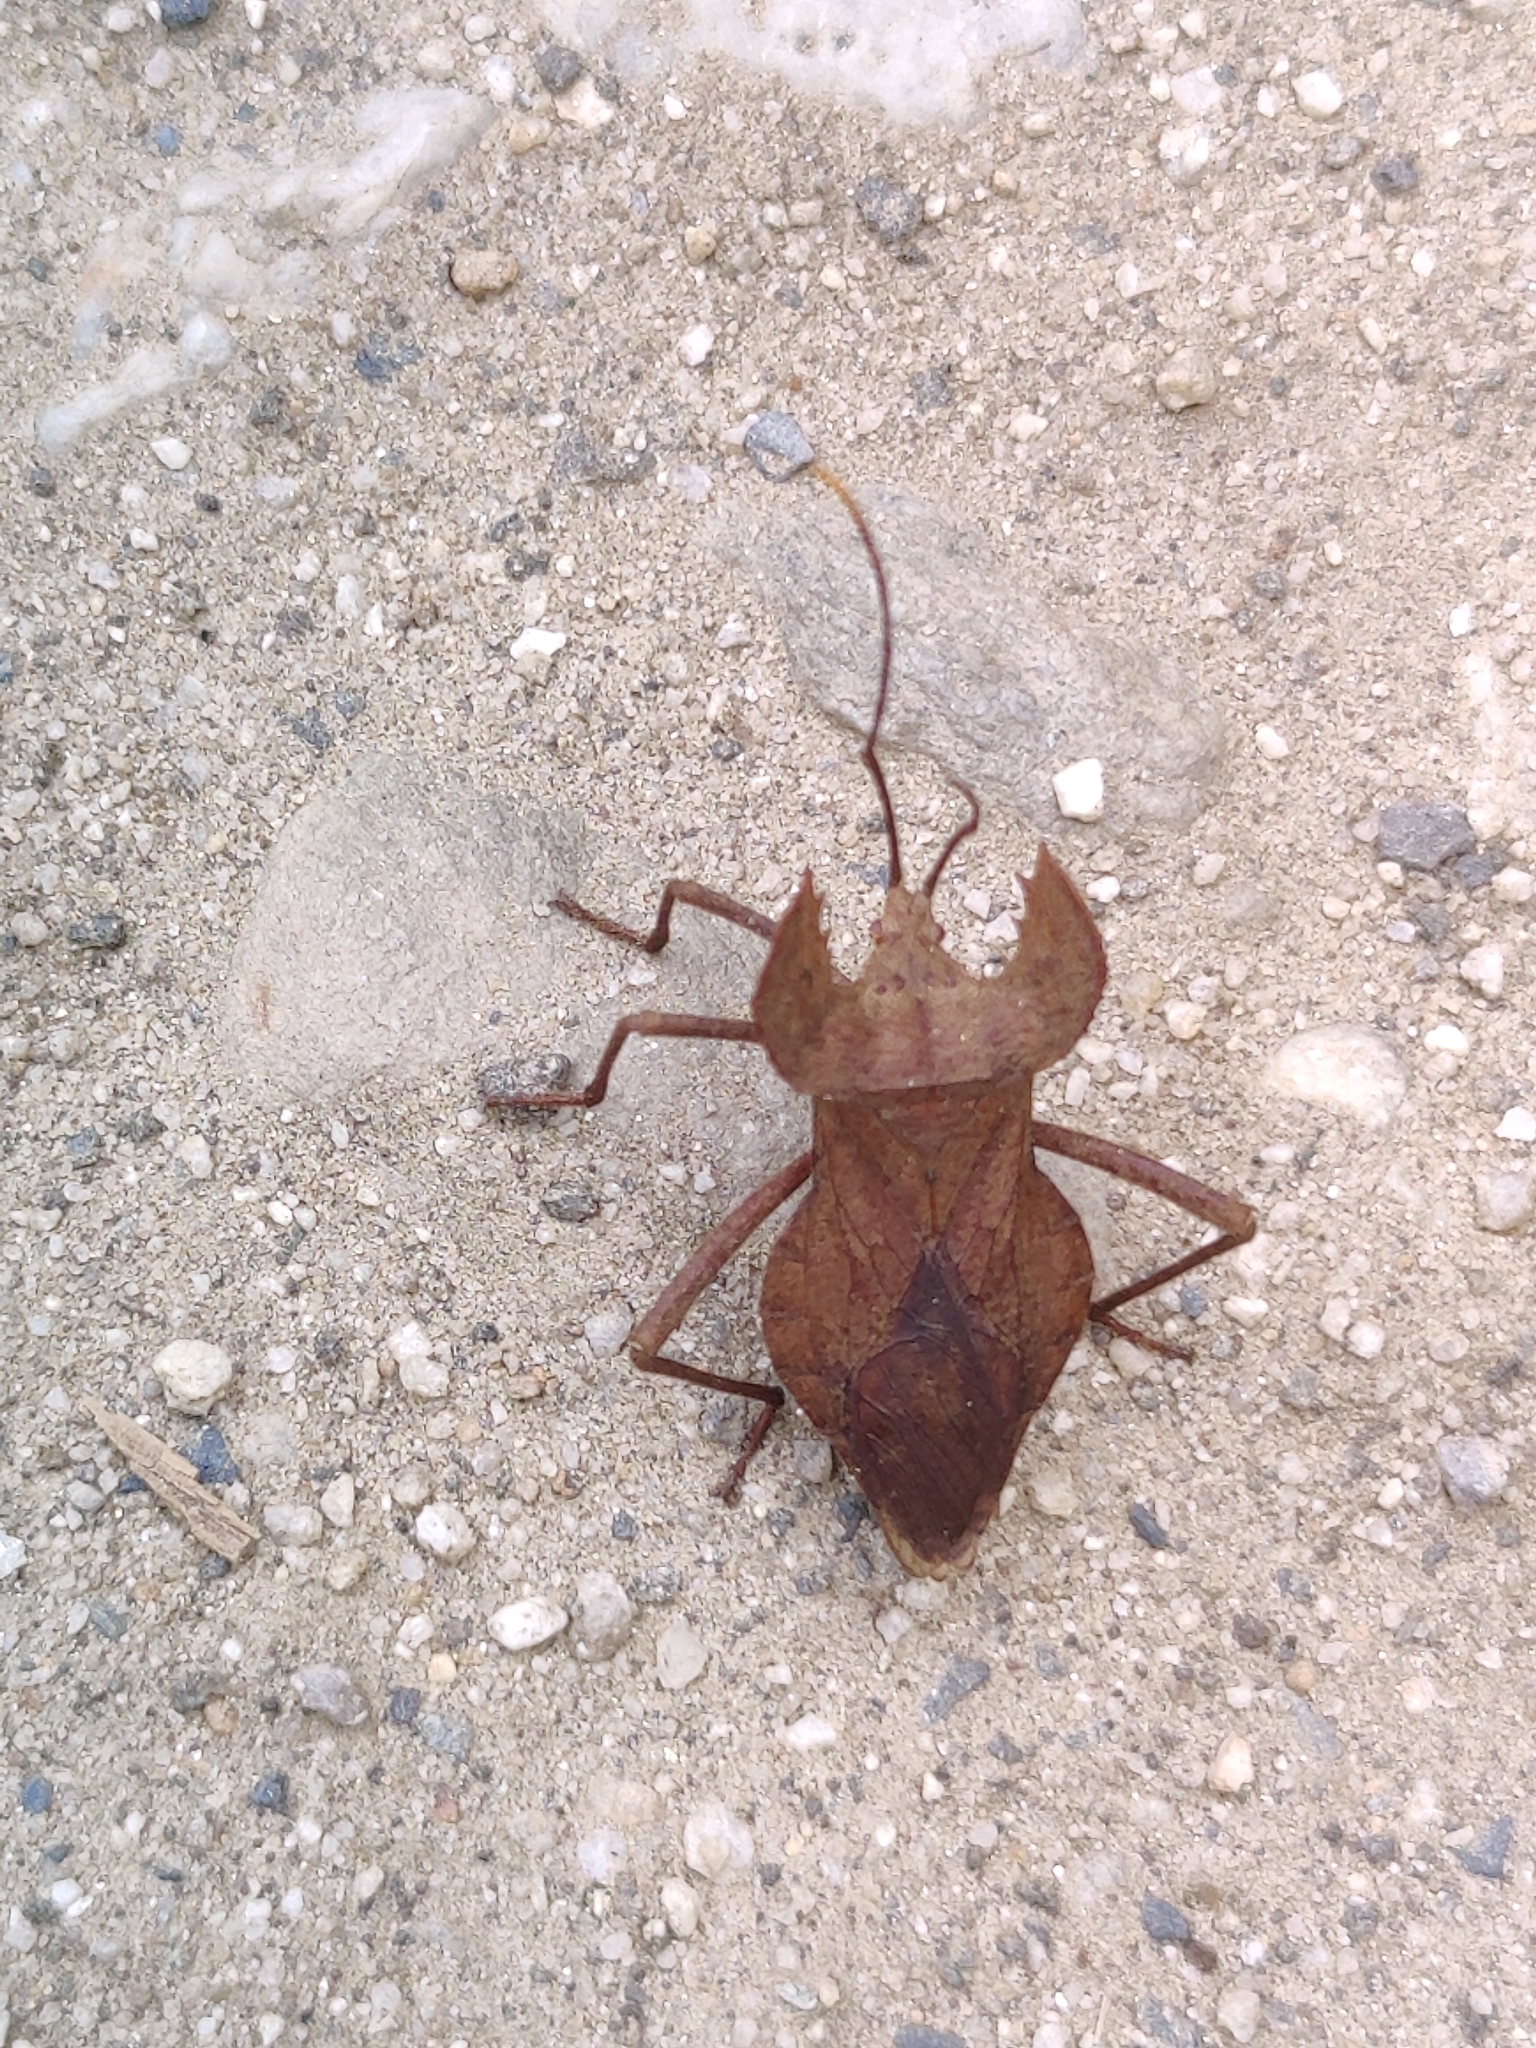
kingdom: Animalia
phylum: Arthropoda
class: Insecta
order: Hemiptera
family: Coreidae
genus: Molipteryx
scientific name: Molipteryx hardwickii
